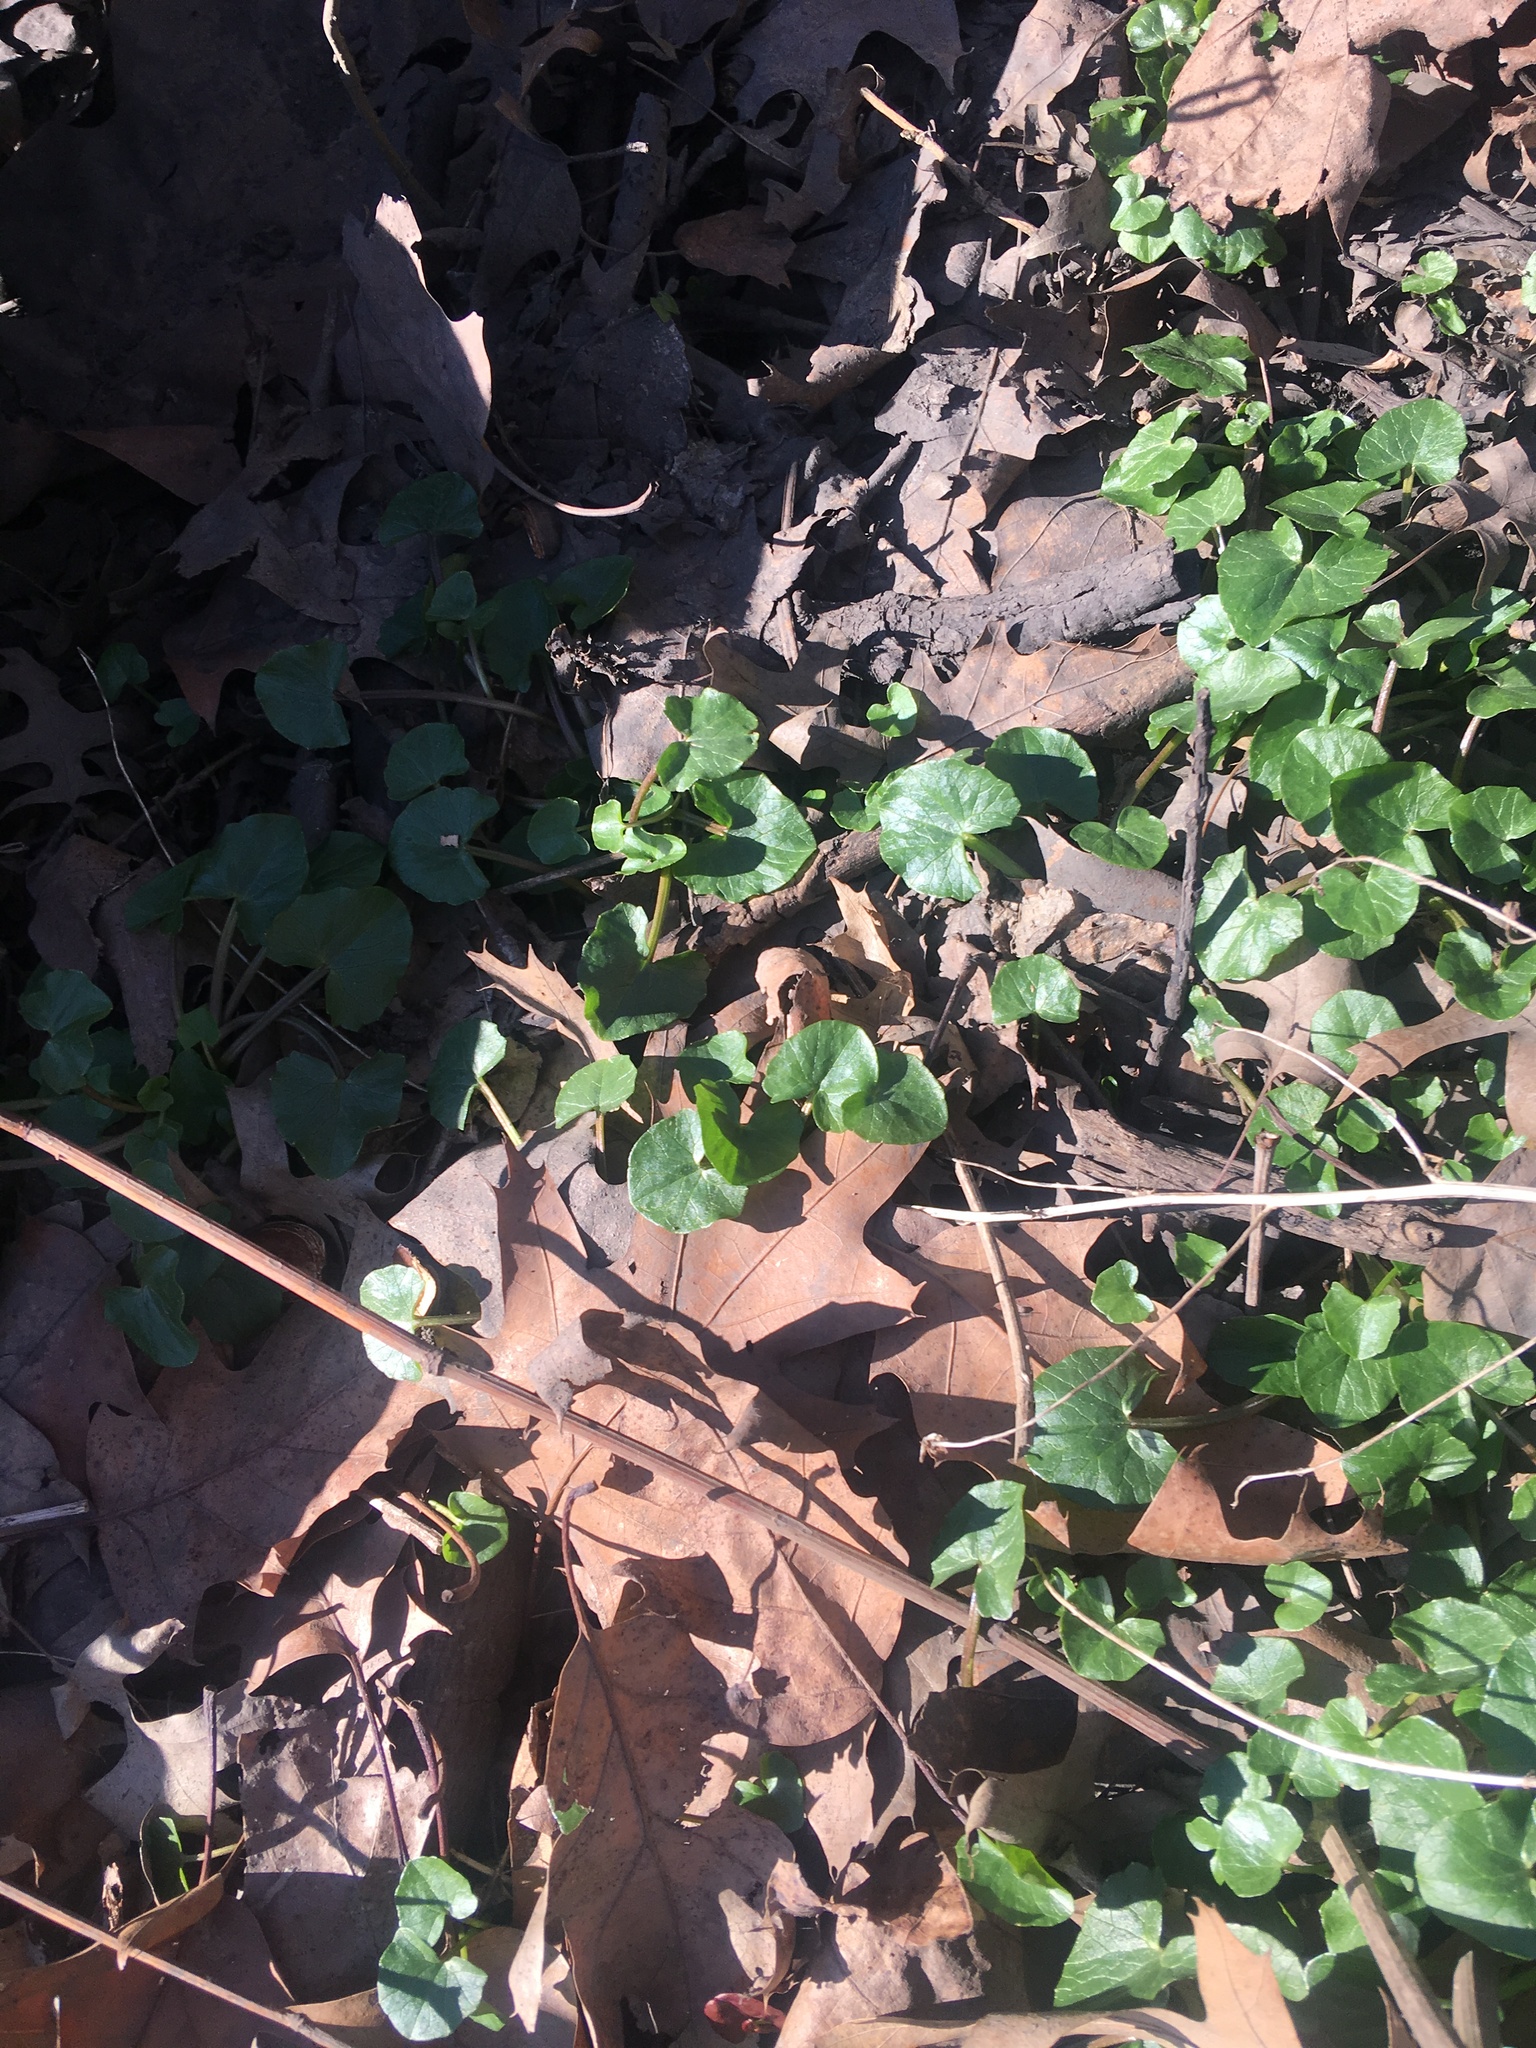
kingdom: Plantae
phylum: Tracheophyta
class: Magnoliopsida
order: Ranunculales
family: Ranunculaceae
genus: Ficaria
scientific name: Ficaria verna
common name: Lesser celandine
